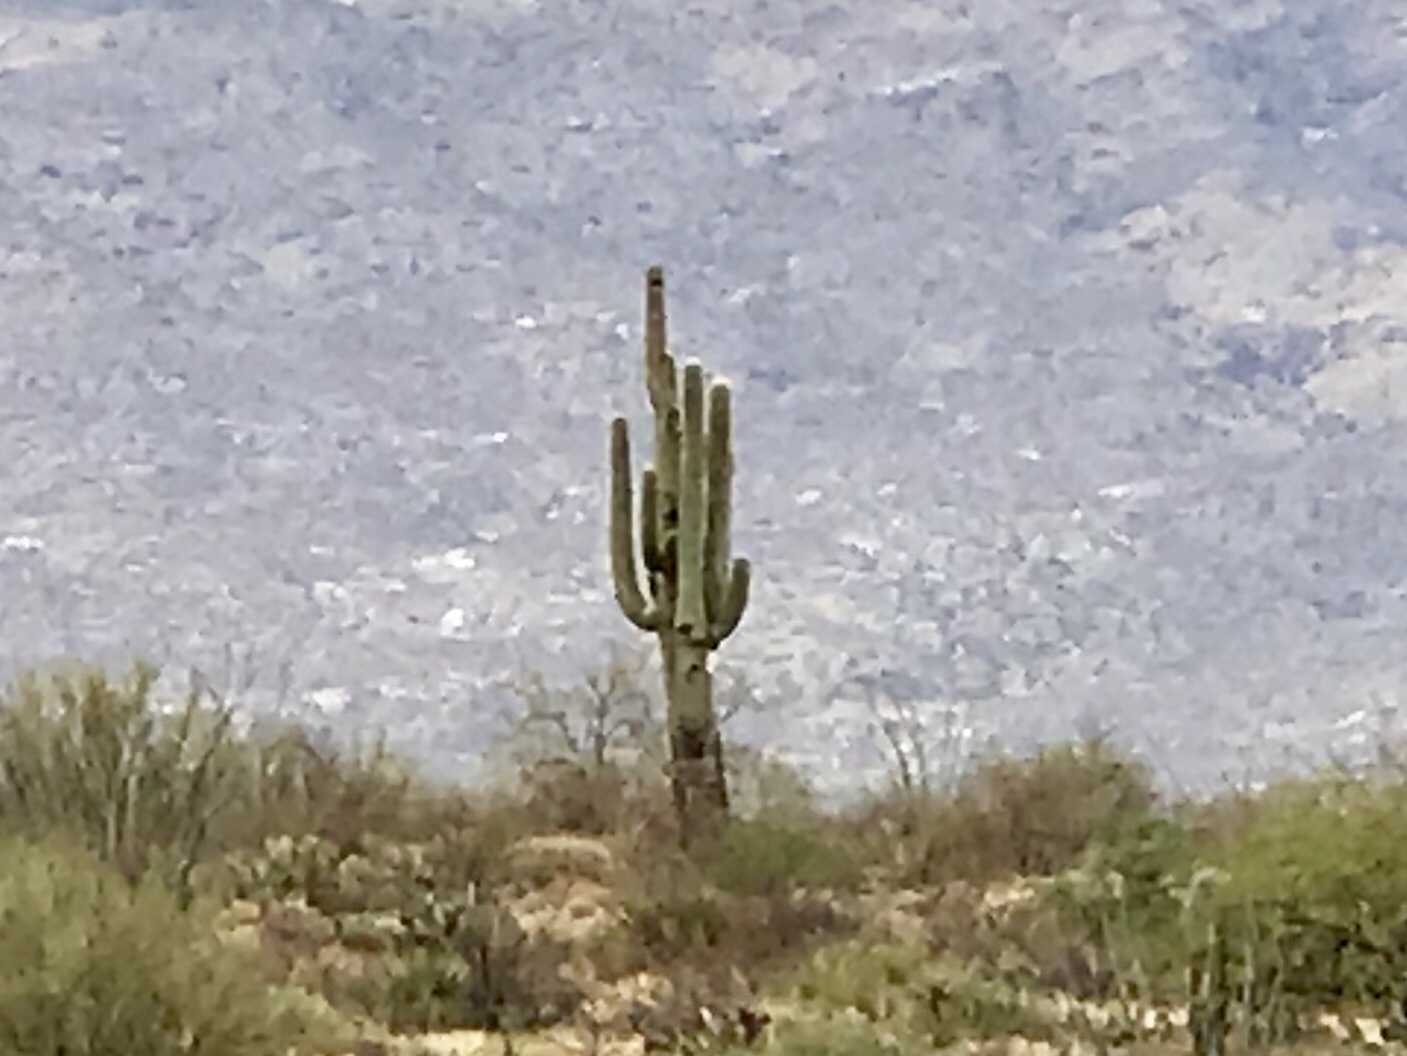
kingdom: Plantae
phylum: Tracheophyta
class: Magnoliopsida
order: Caryophyllales
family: Cactaceae
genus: Carnegiea
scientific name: Carnegiea gigantea
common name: Saguaro
